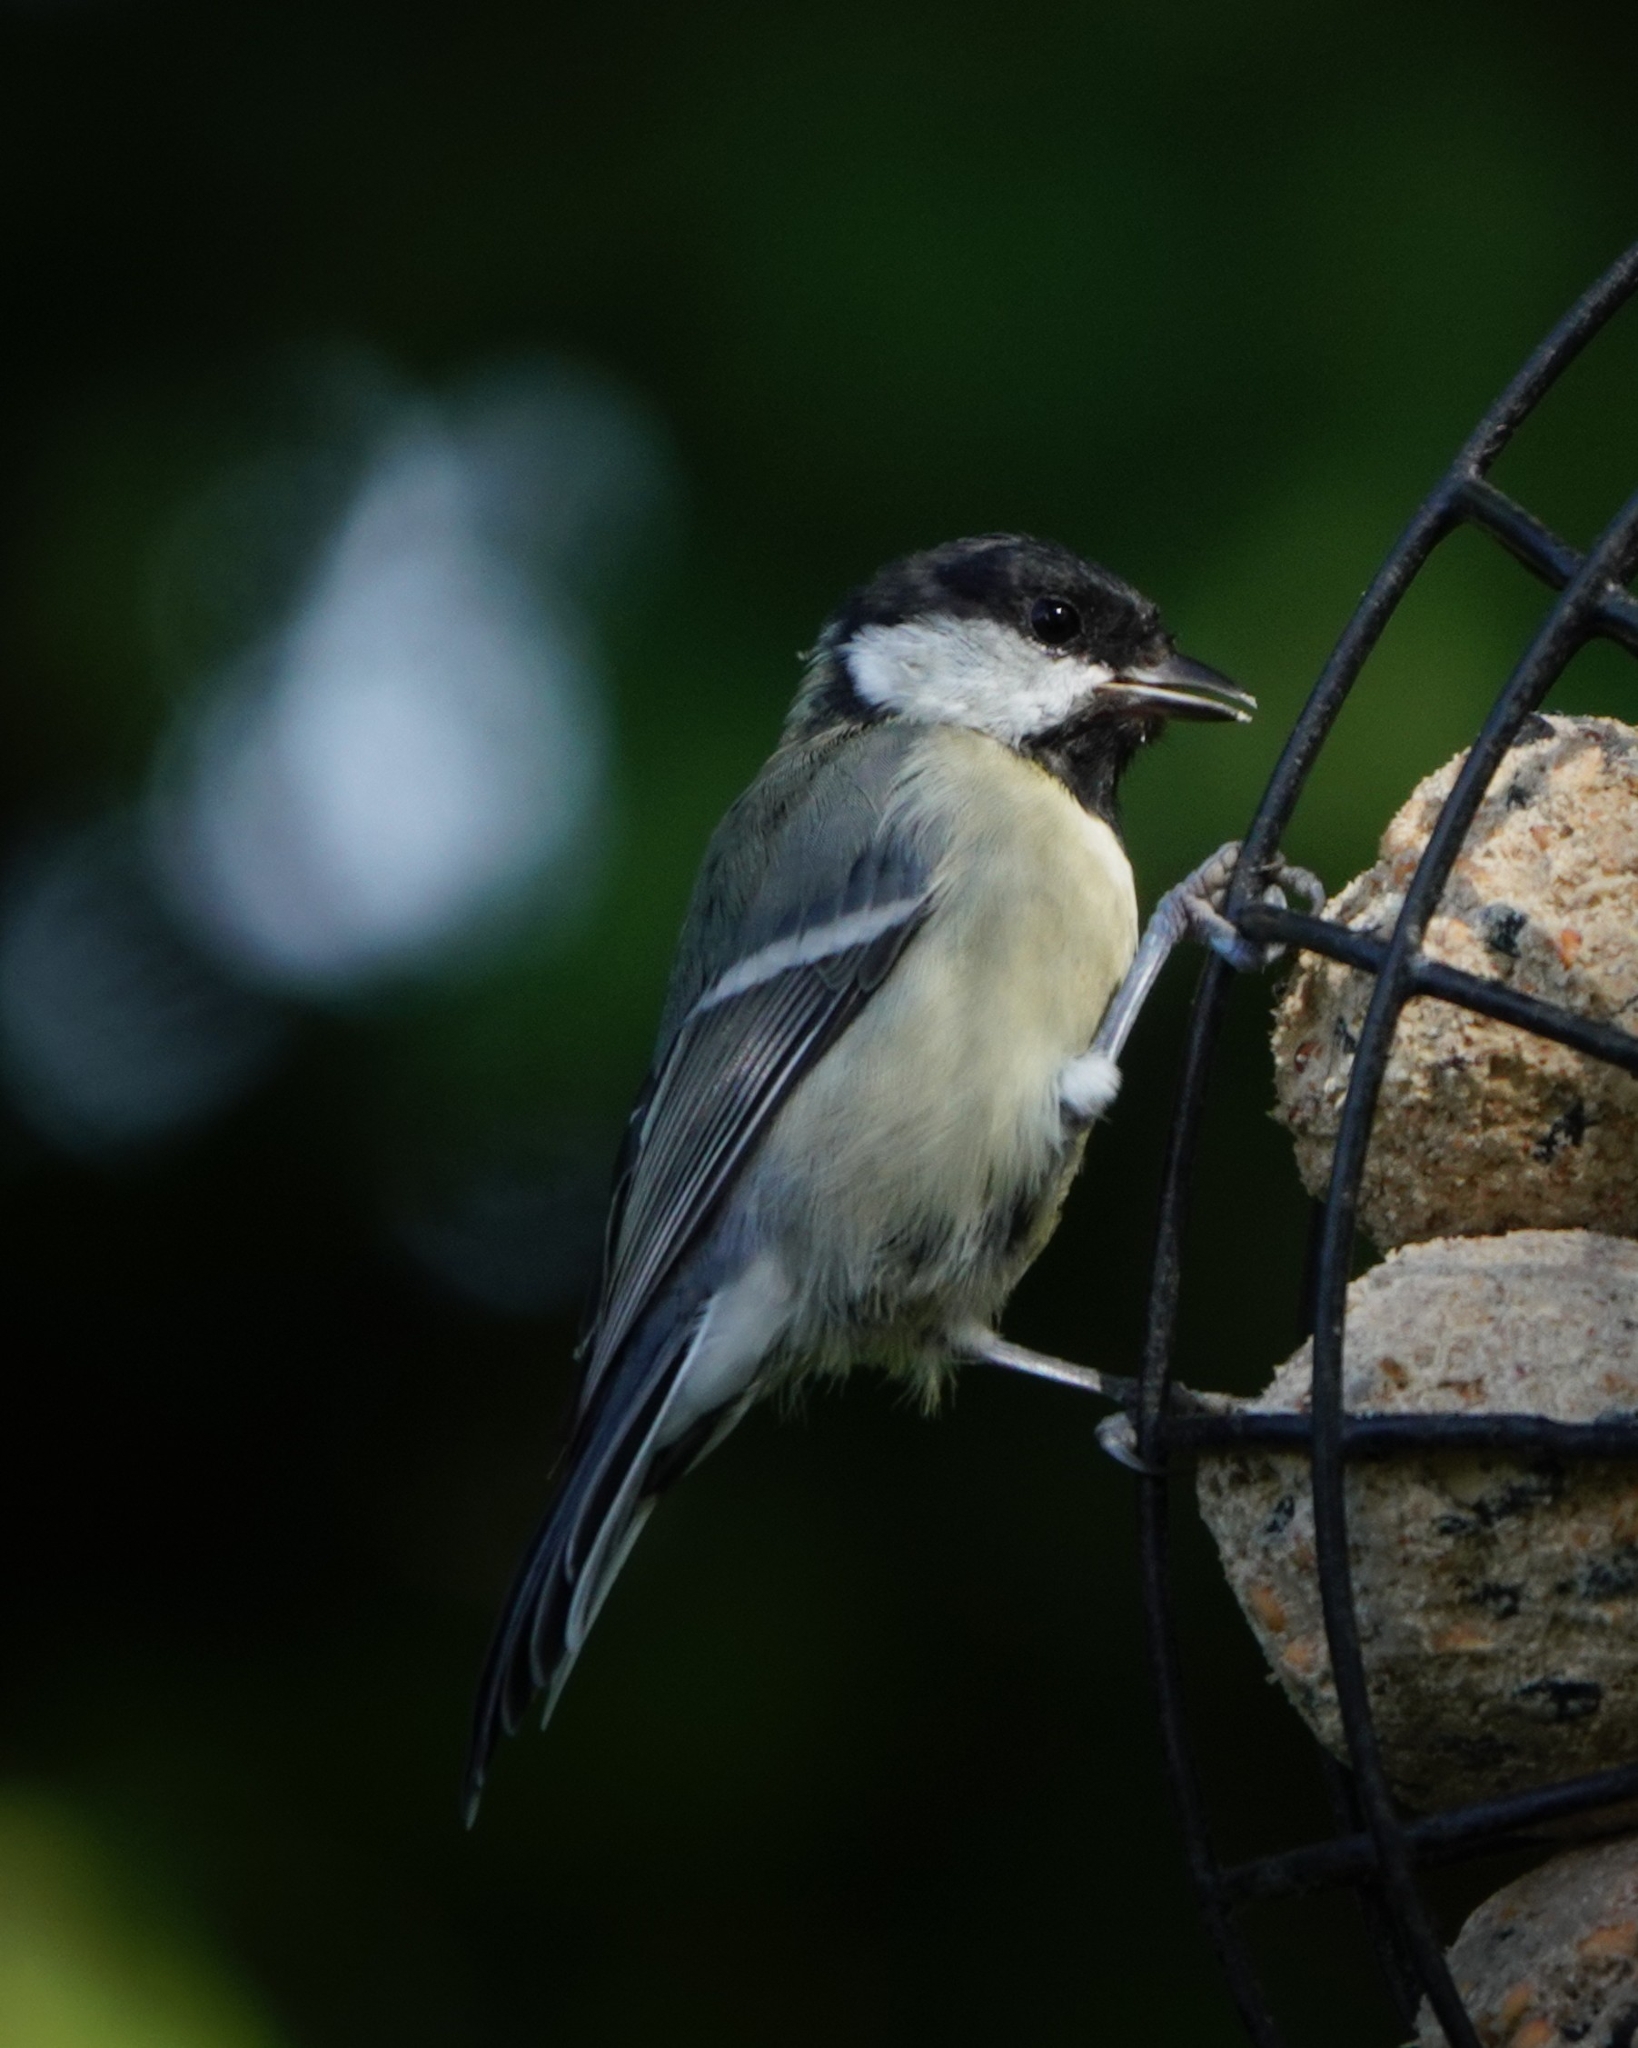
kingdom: Animalia
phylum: Chordata
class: Aves
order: Passeriformes
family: Paridae
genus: Parus
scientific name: Parus major
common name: Great tit
